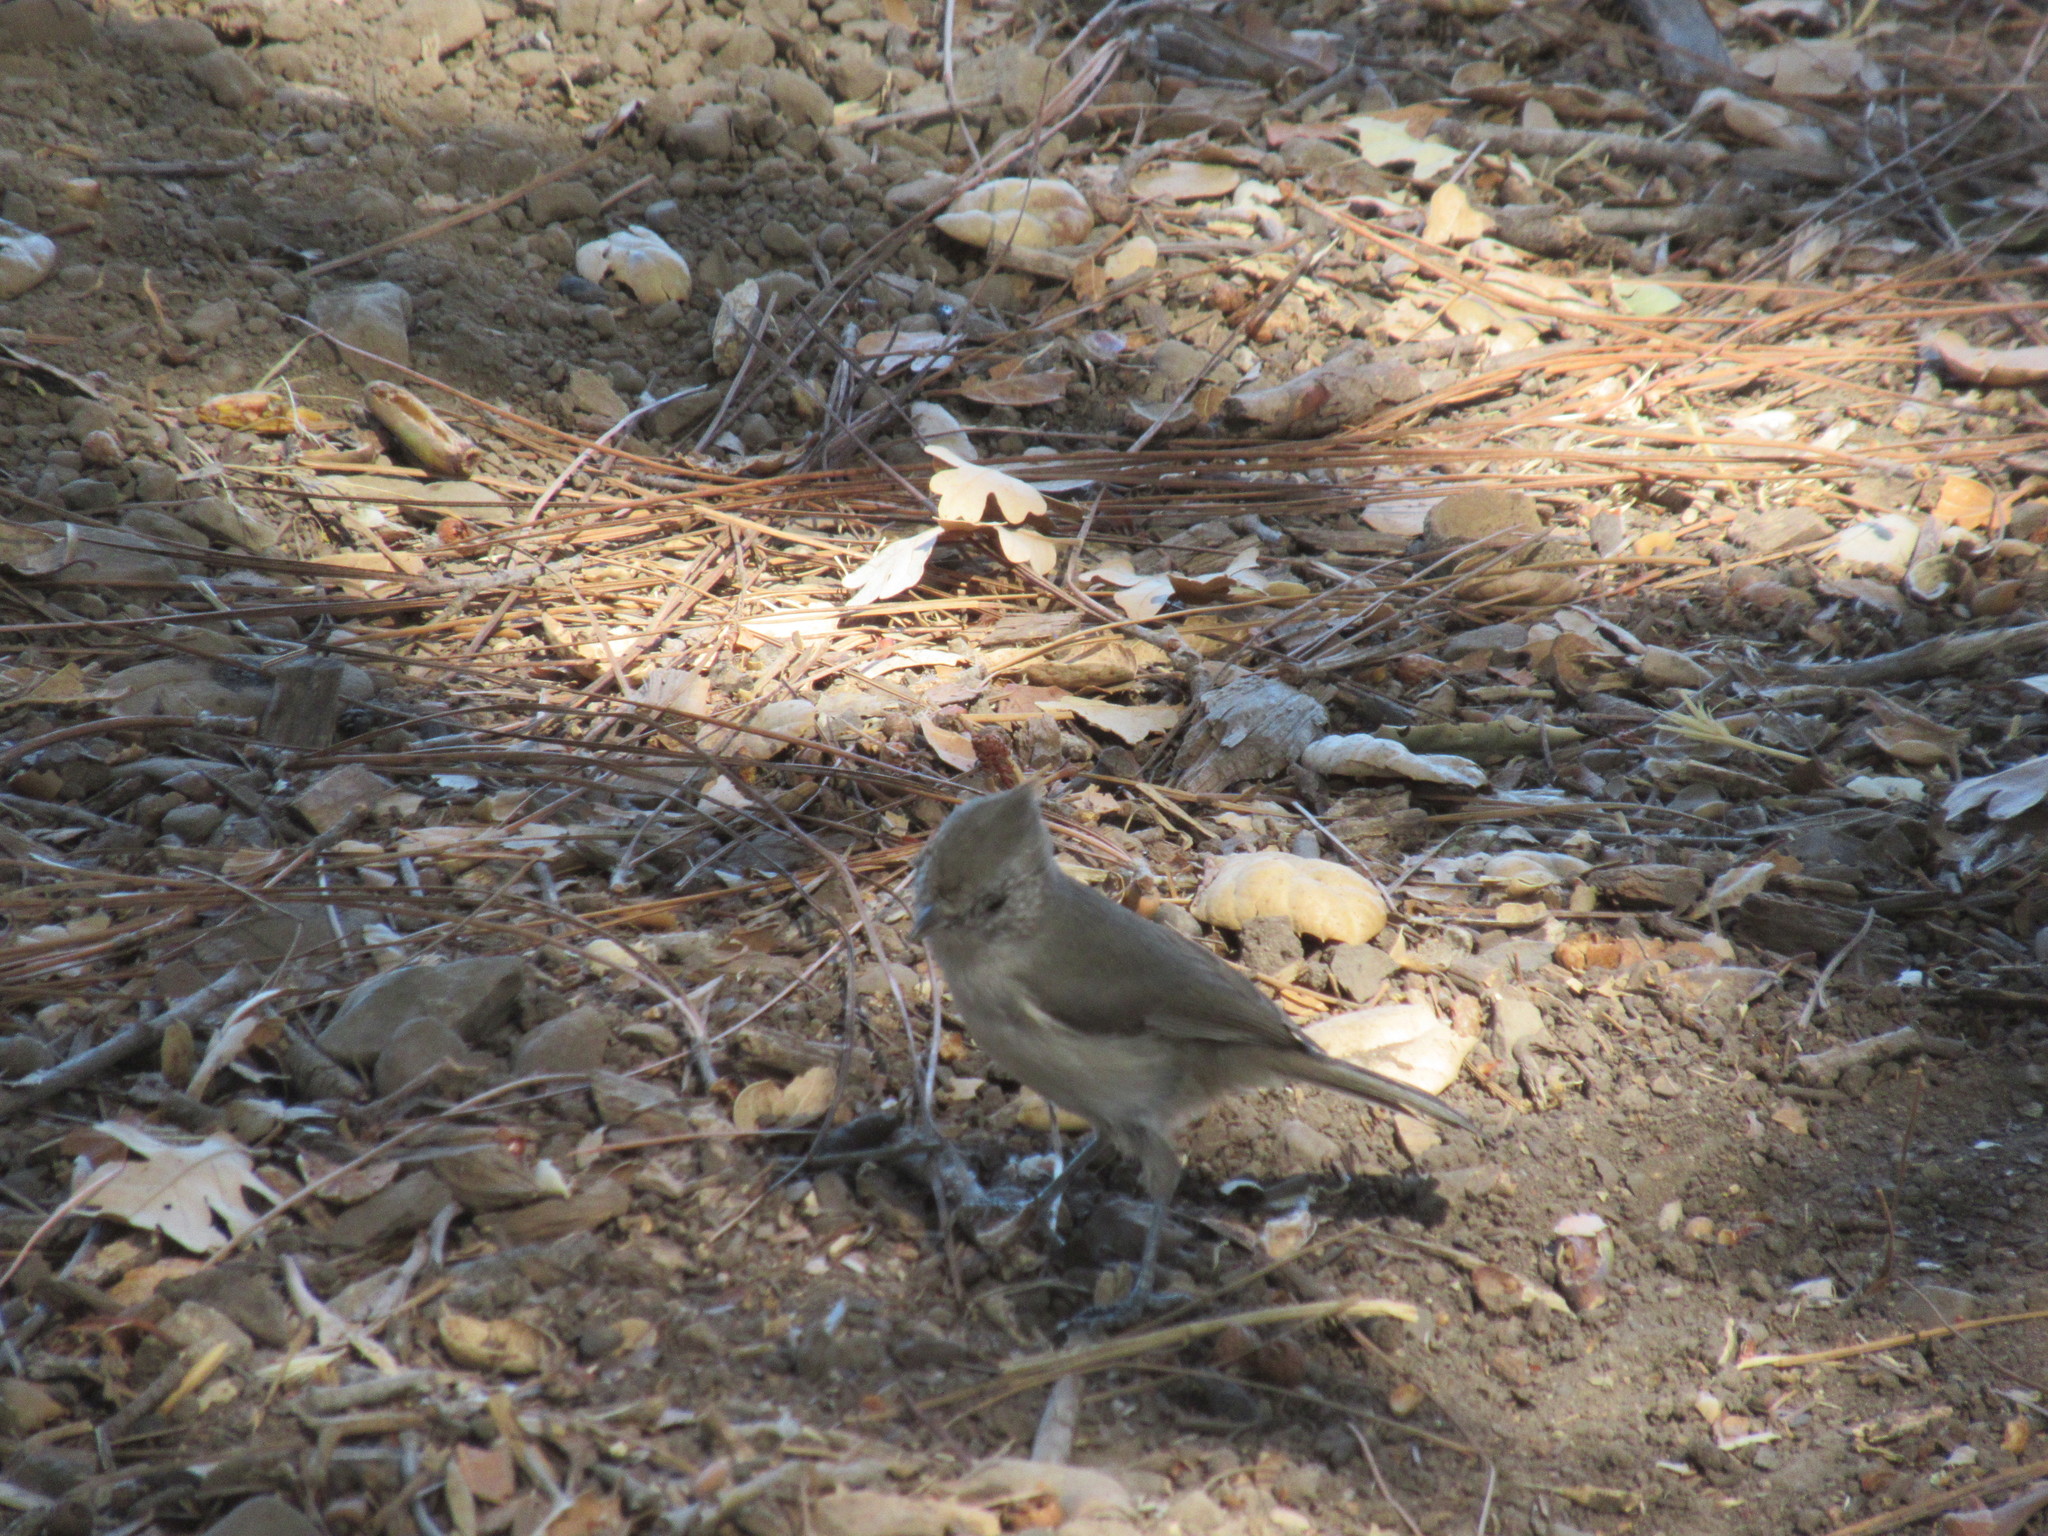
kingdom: Animalia
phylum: Chordata
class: Aves
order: Passeriformes
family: Paridae
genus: Baeolophus
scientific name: Baeolophus inornatus
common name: Oak titmouse
